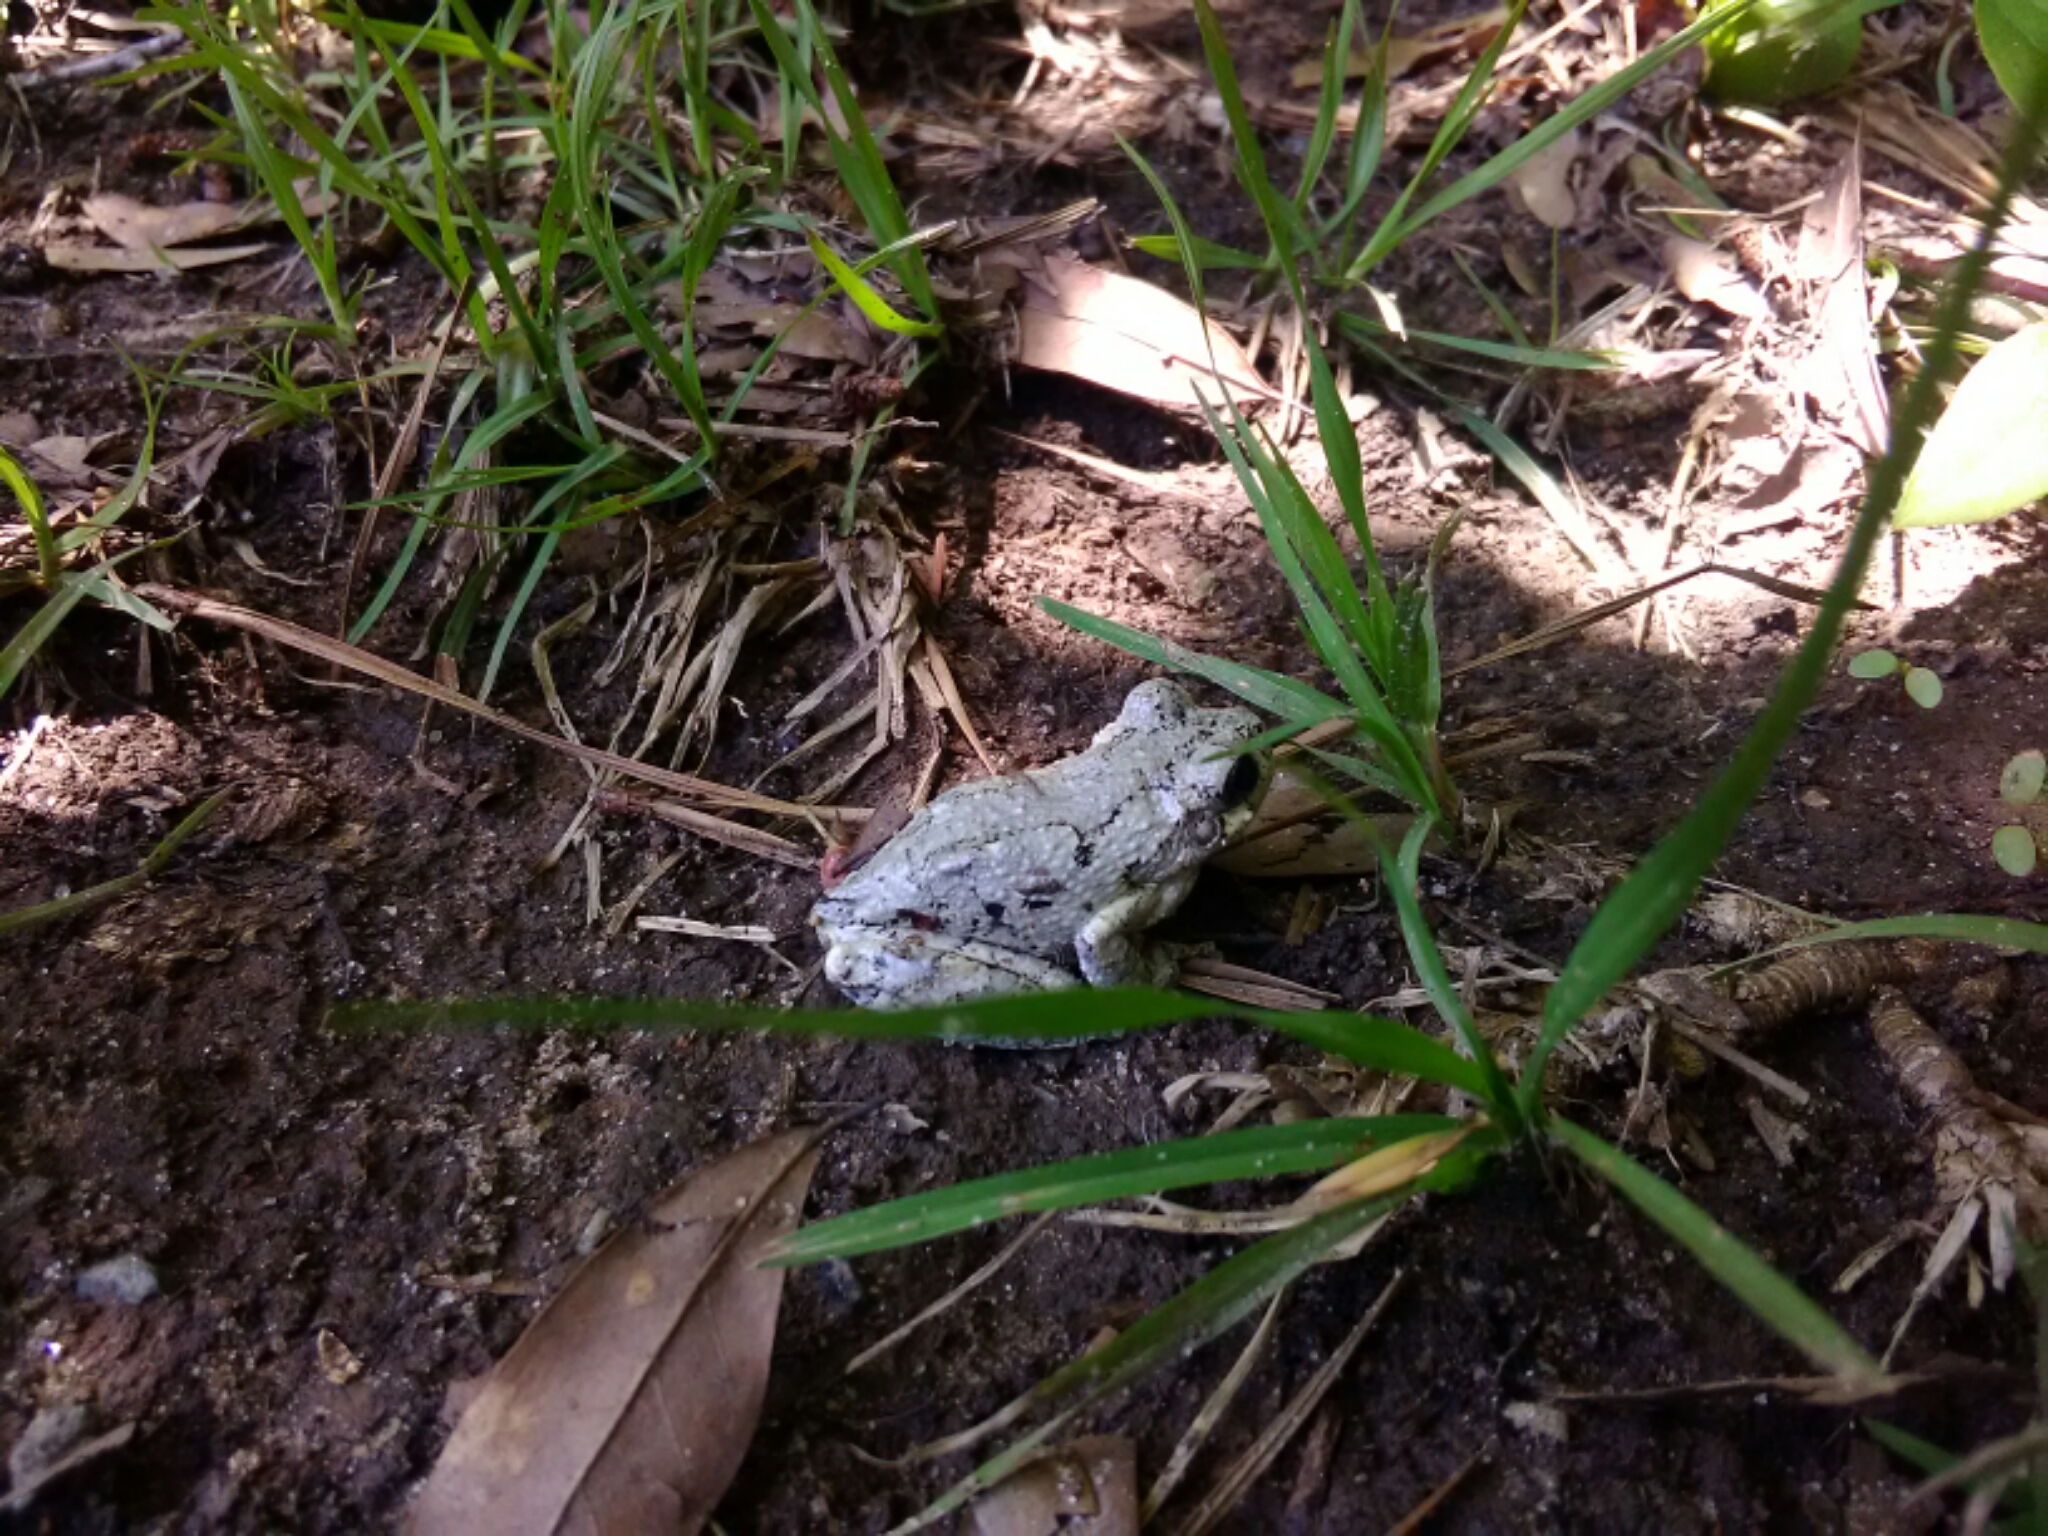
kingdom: Animalia
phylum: Chordata
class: Amphibia
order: Anura
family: Hylidae
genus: Dryophytes
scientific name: Dryophytes chrysoscelis
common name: Cope's gray treefrog
